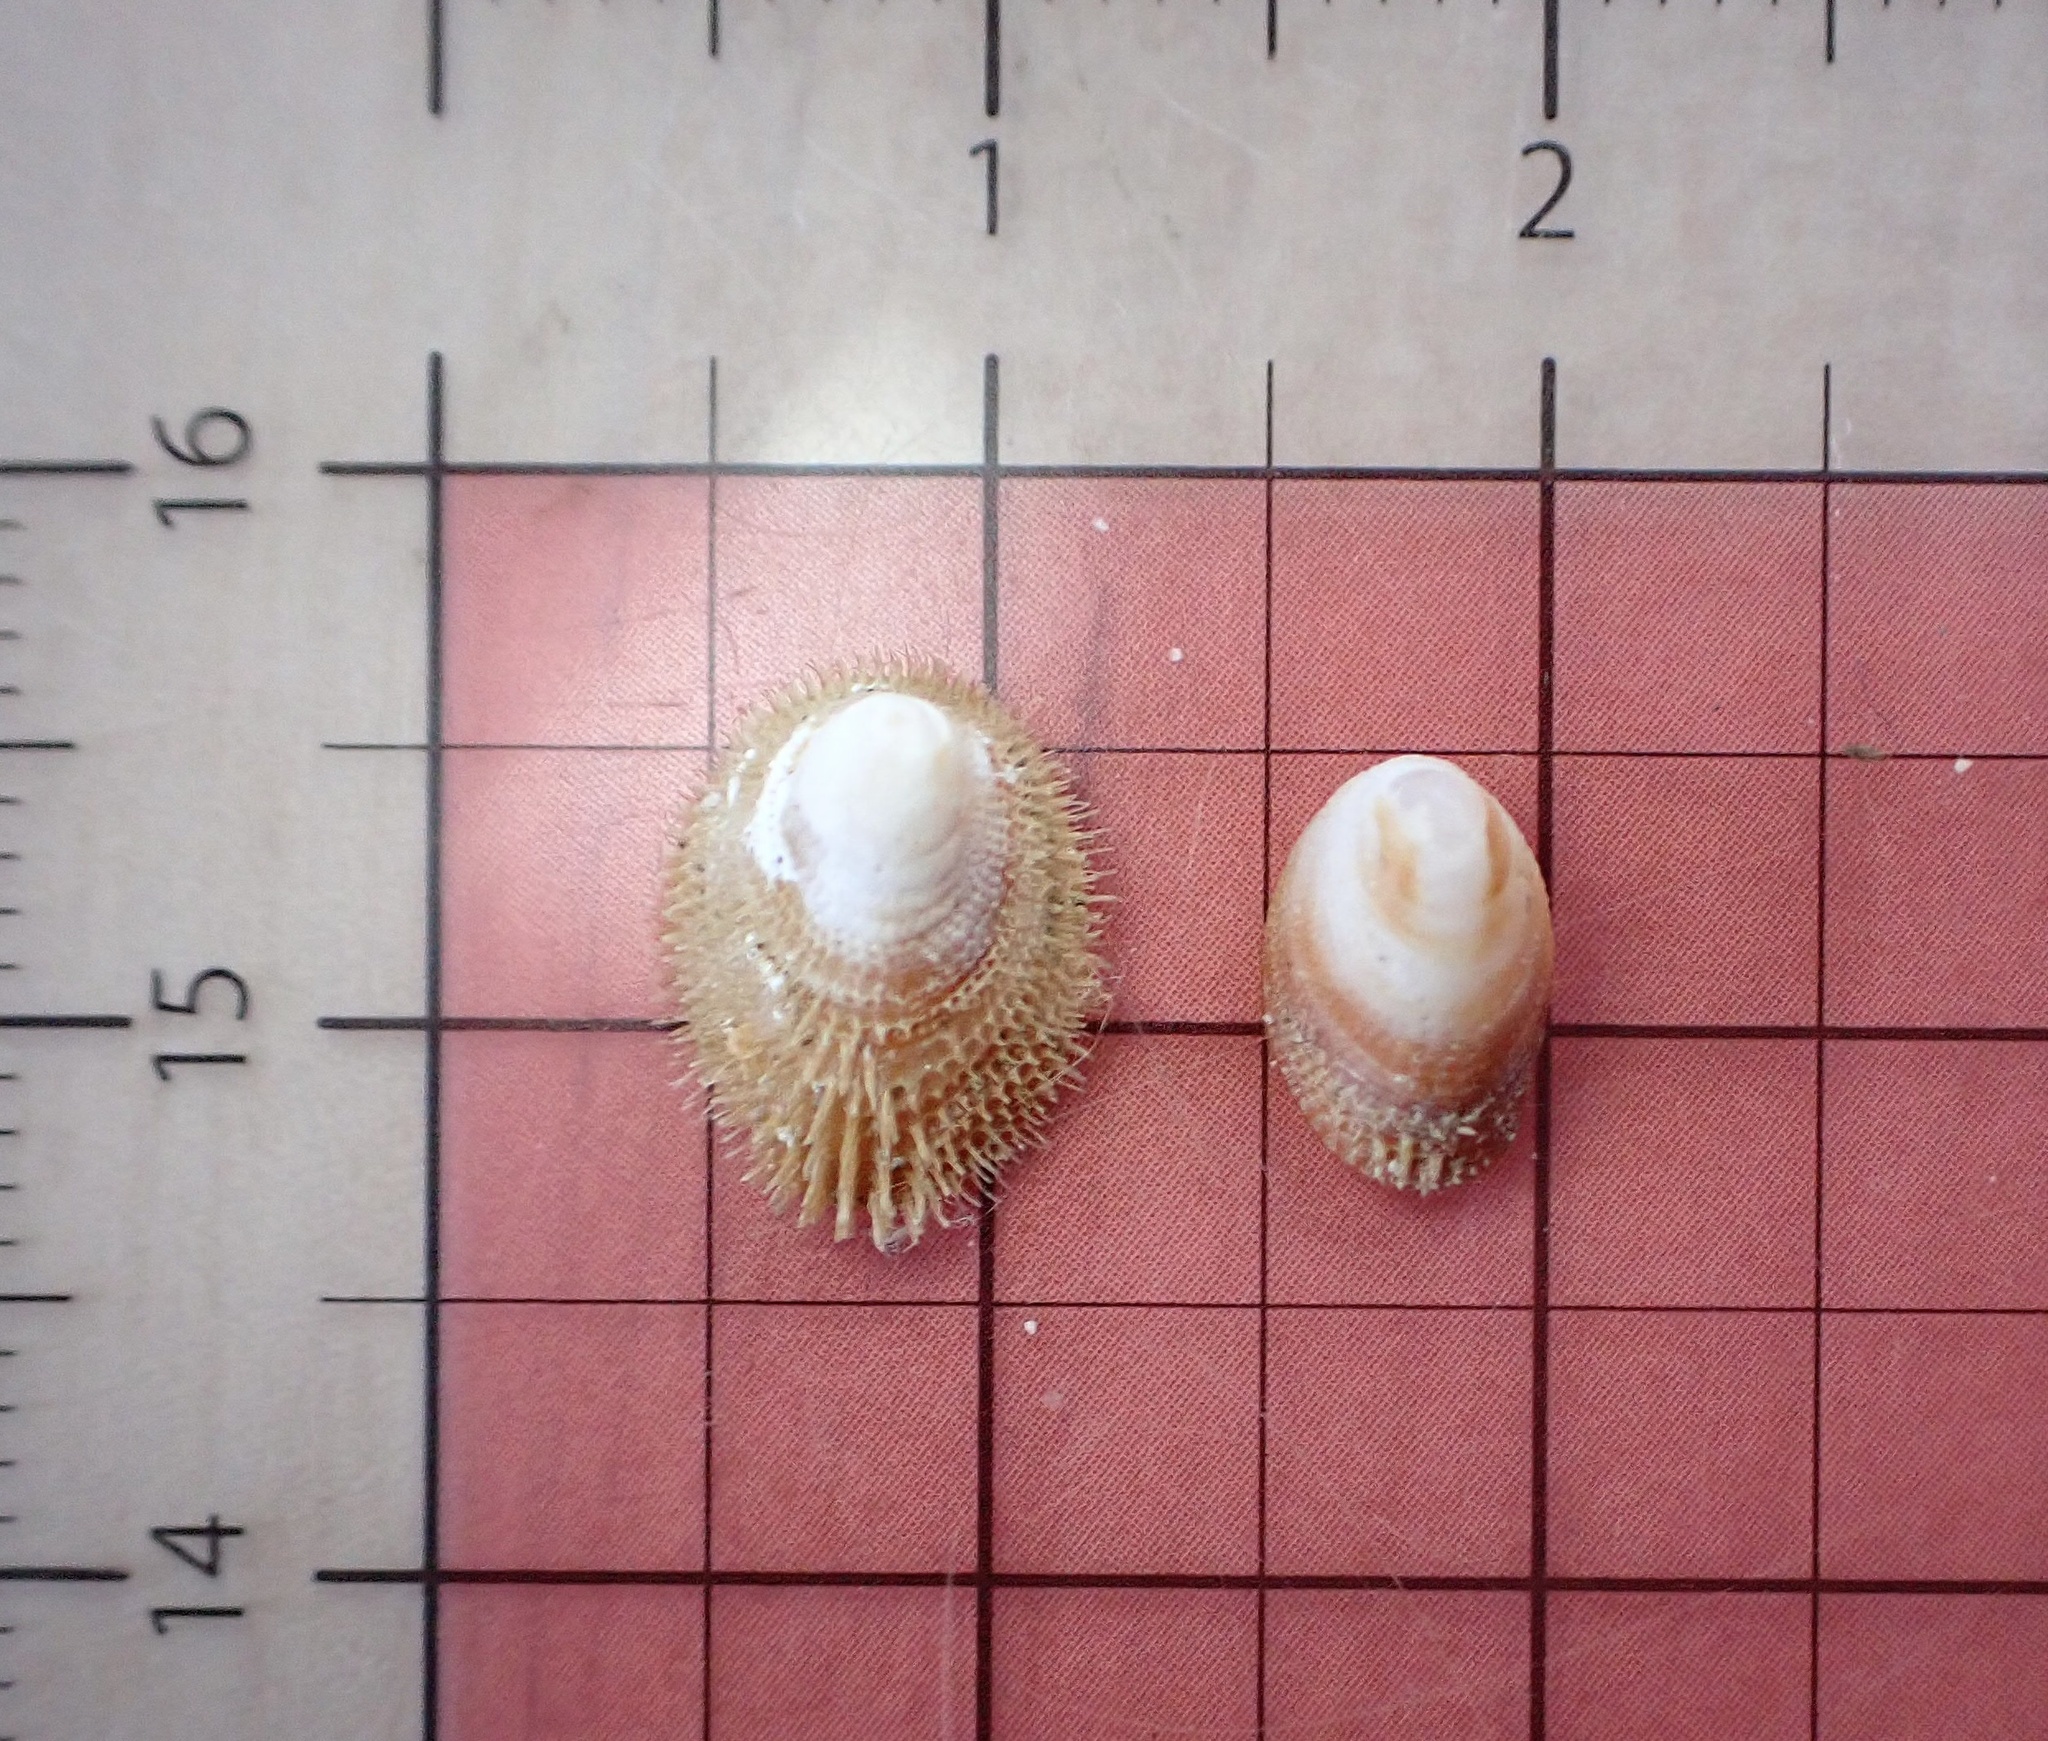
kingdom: Animalia
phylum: Mollusca
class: Gastropoda
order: Littorinimorpha
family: Hipponicidae
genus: Pilosabia
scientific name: Pilosabia trigona
